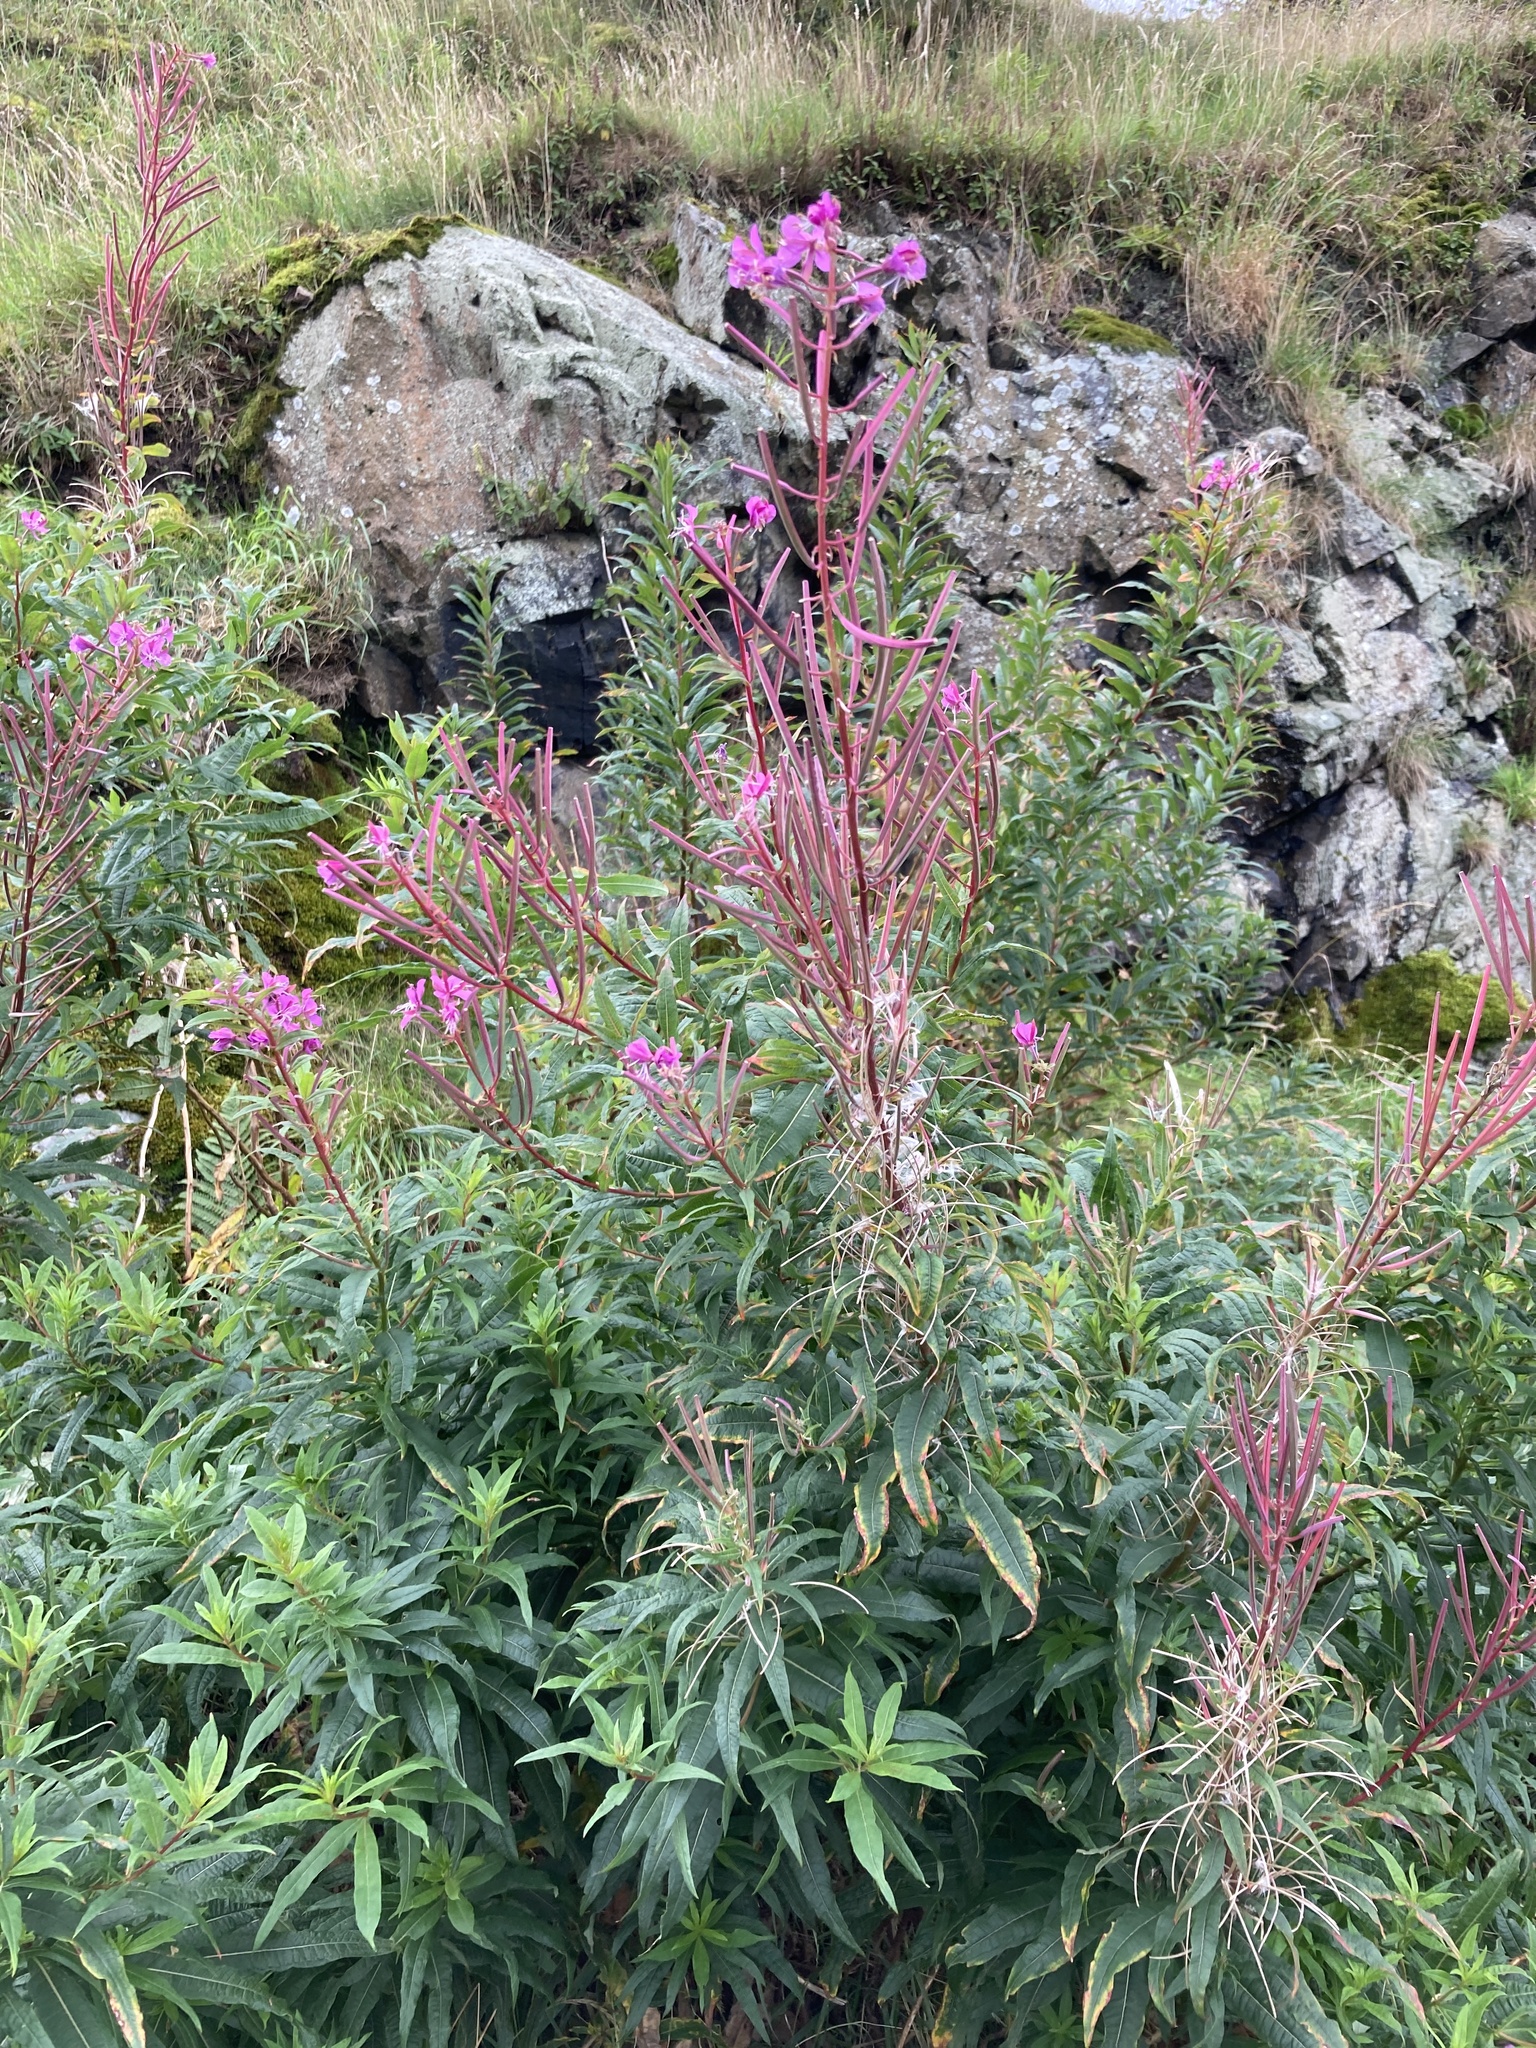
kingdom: Plantae
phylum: Tracheophyta
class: Magnoliopsida
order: Myrtales
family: Onagraceae
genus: Chamaenerion
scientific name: Chamaenerion angustifolium
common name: Fireweed
